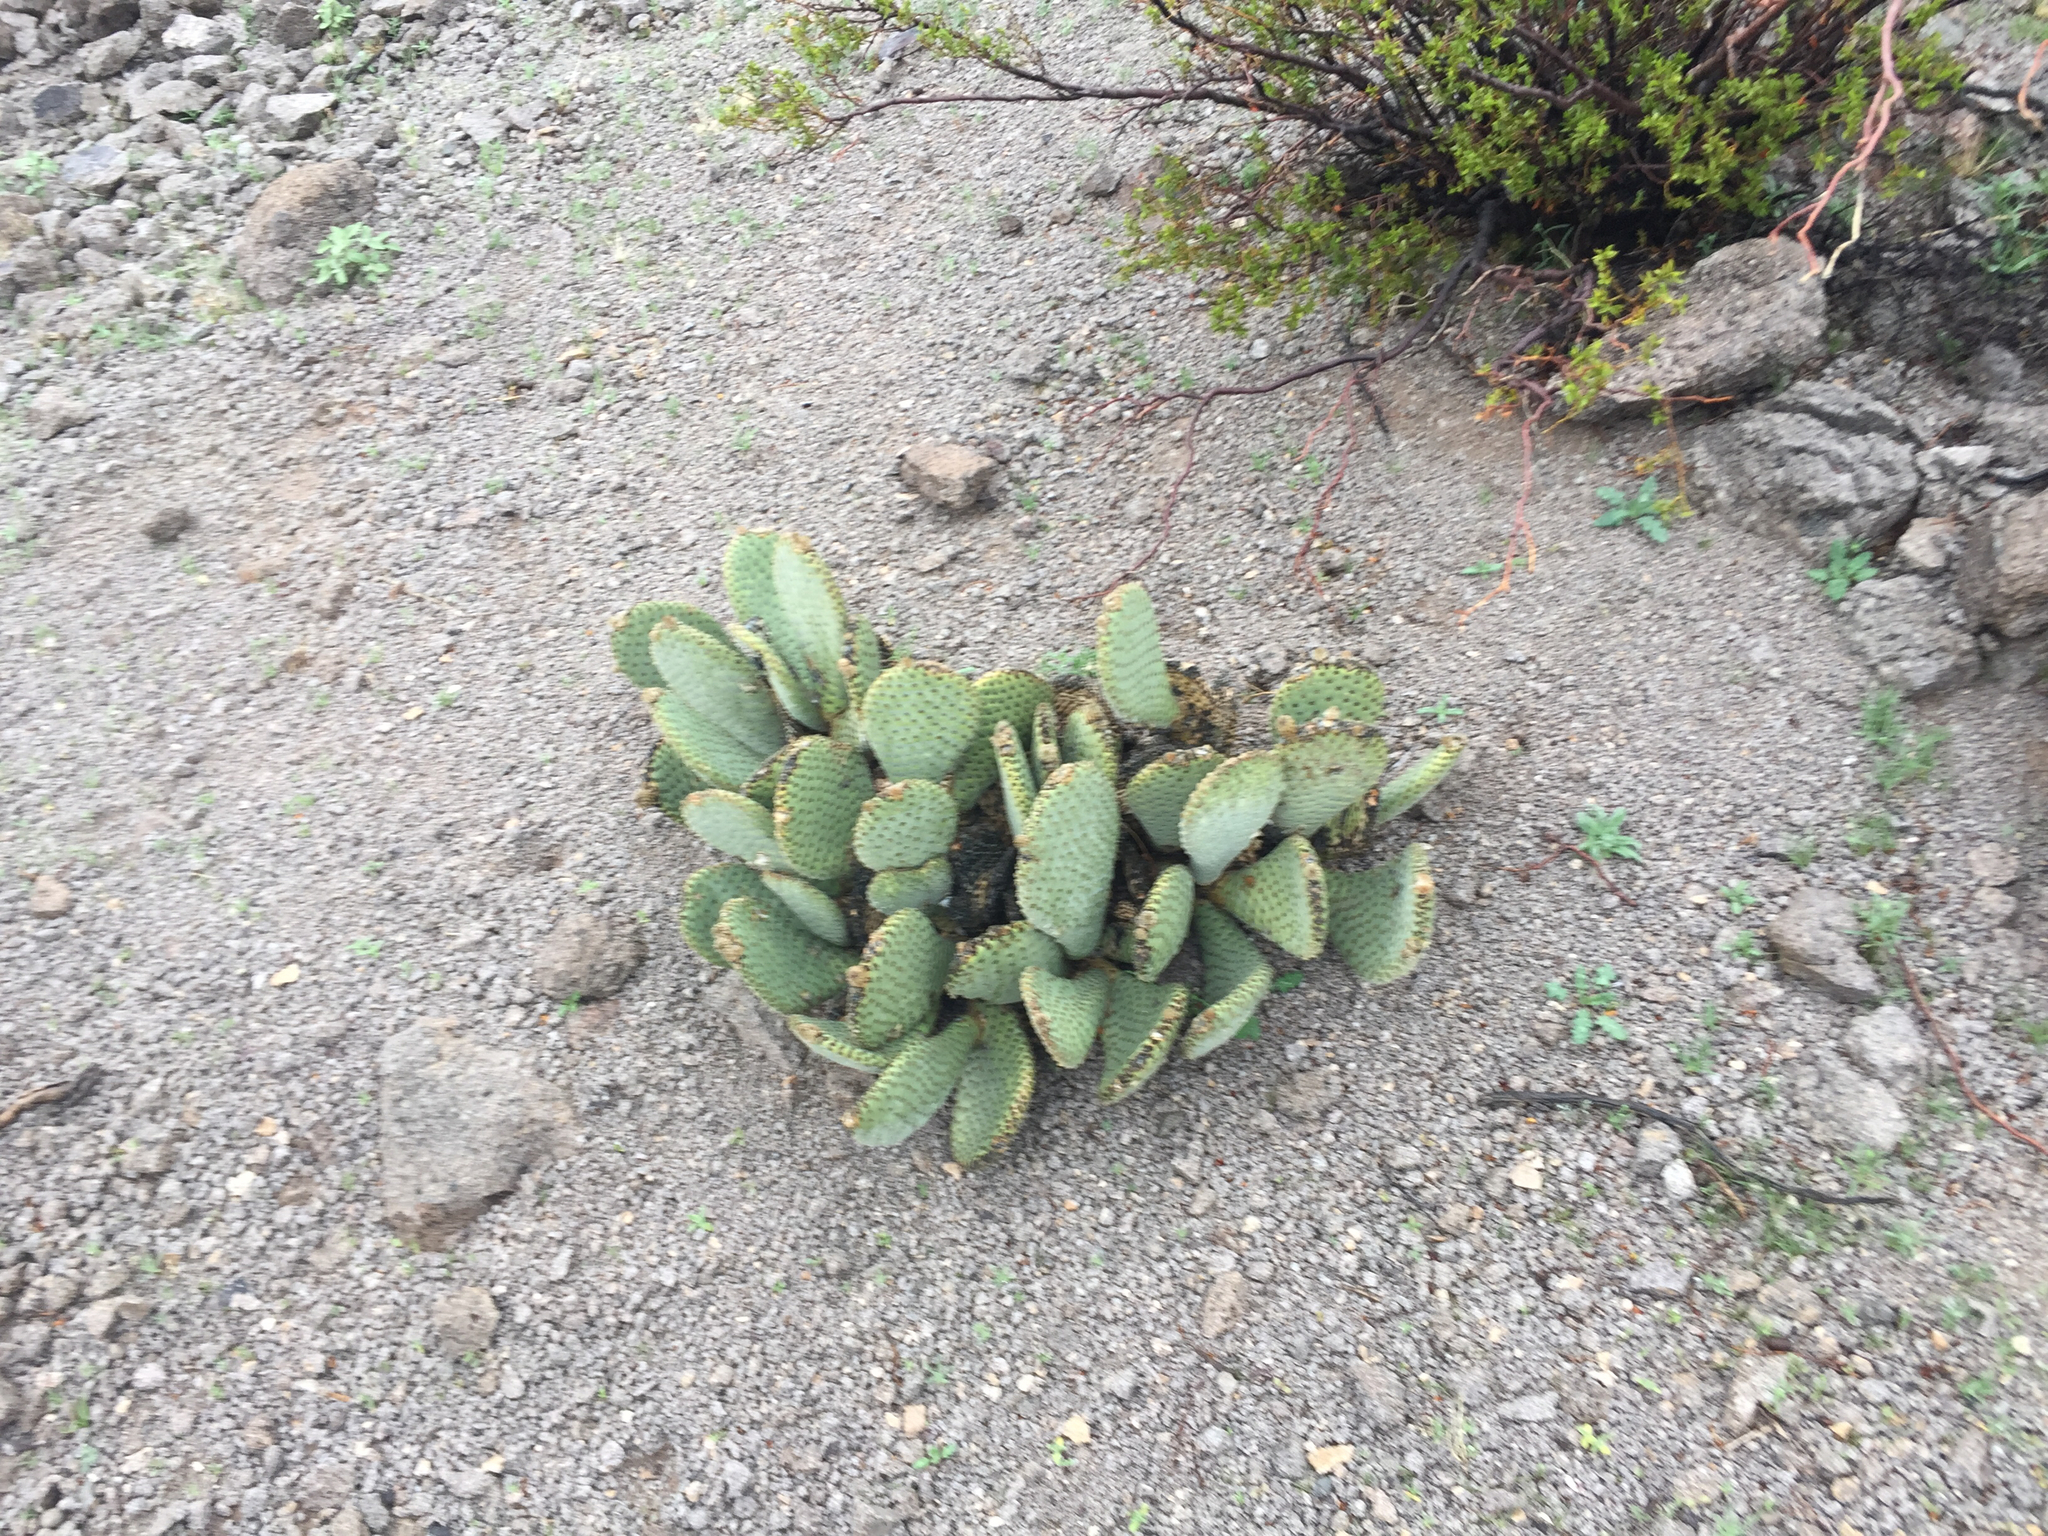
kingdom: Plantae
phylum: Tracheophyta
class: Magnoliopsida
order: Caryophyllales
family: Cactaceae
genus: Opuntia
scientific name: Opuntia basilaris
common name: Beavertail prickly-pear
